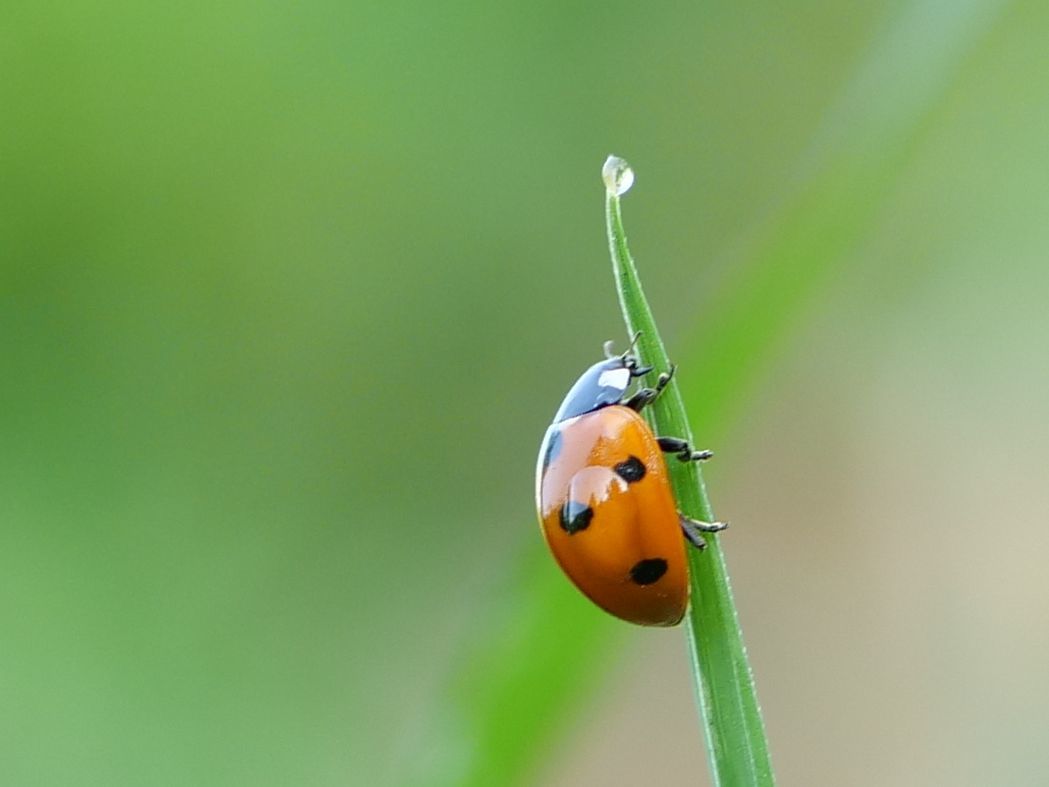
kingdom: Animalia
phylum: Arthropoda
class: Insecta
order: Coleoptera
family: Coccinellidae
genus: Coccinella
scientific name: Coccinella septempunctata
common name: Sevenspotted lady beetle
